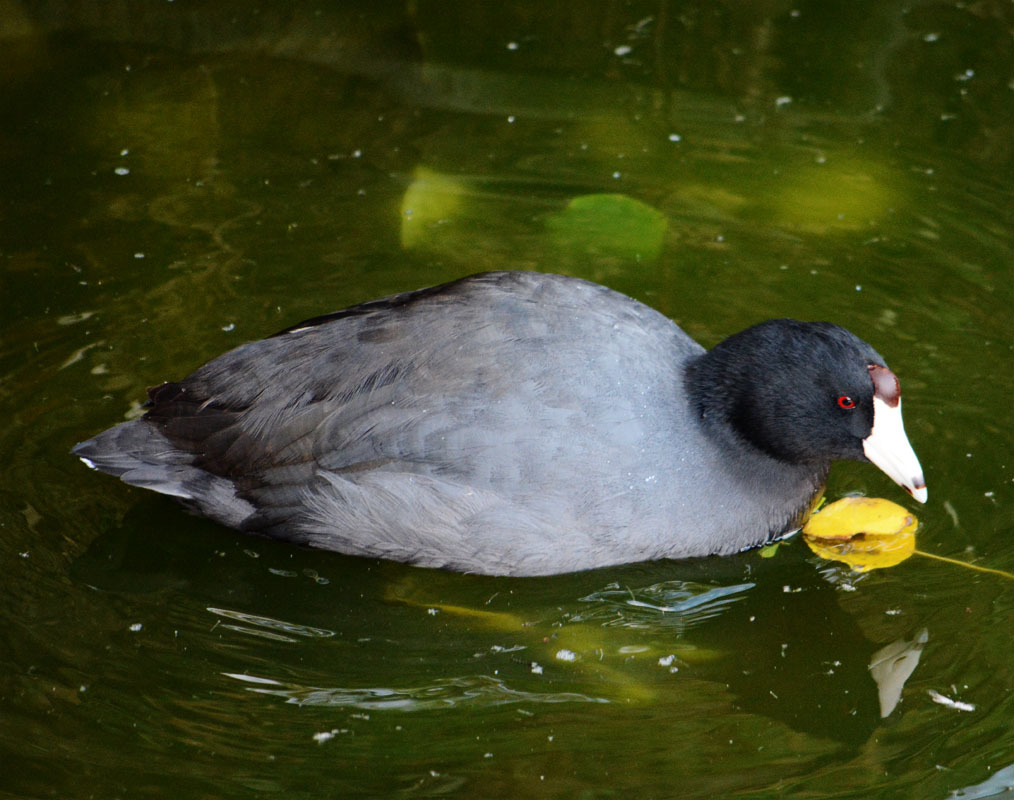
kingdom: Animalia
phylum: Chordata
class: Aves
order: Gruiformes
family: Rallidae
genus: Fulica
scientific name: Fulica americana
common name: American coot
